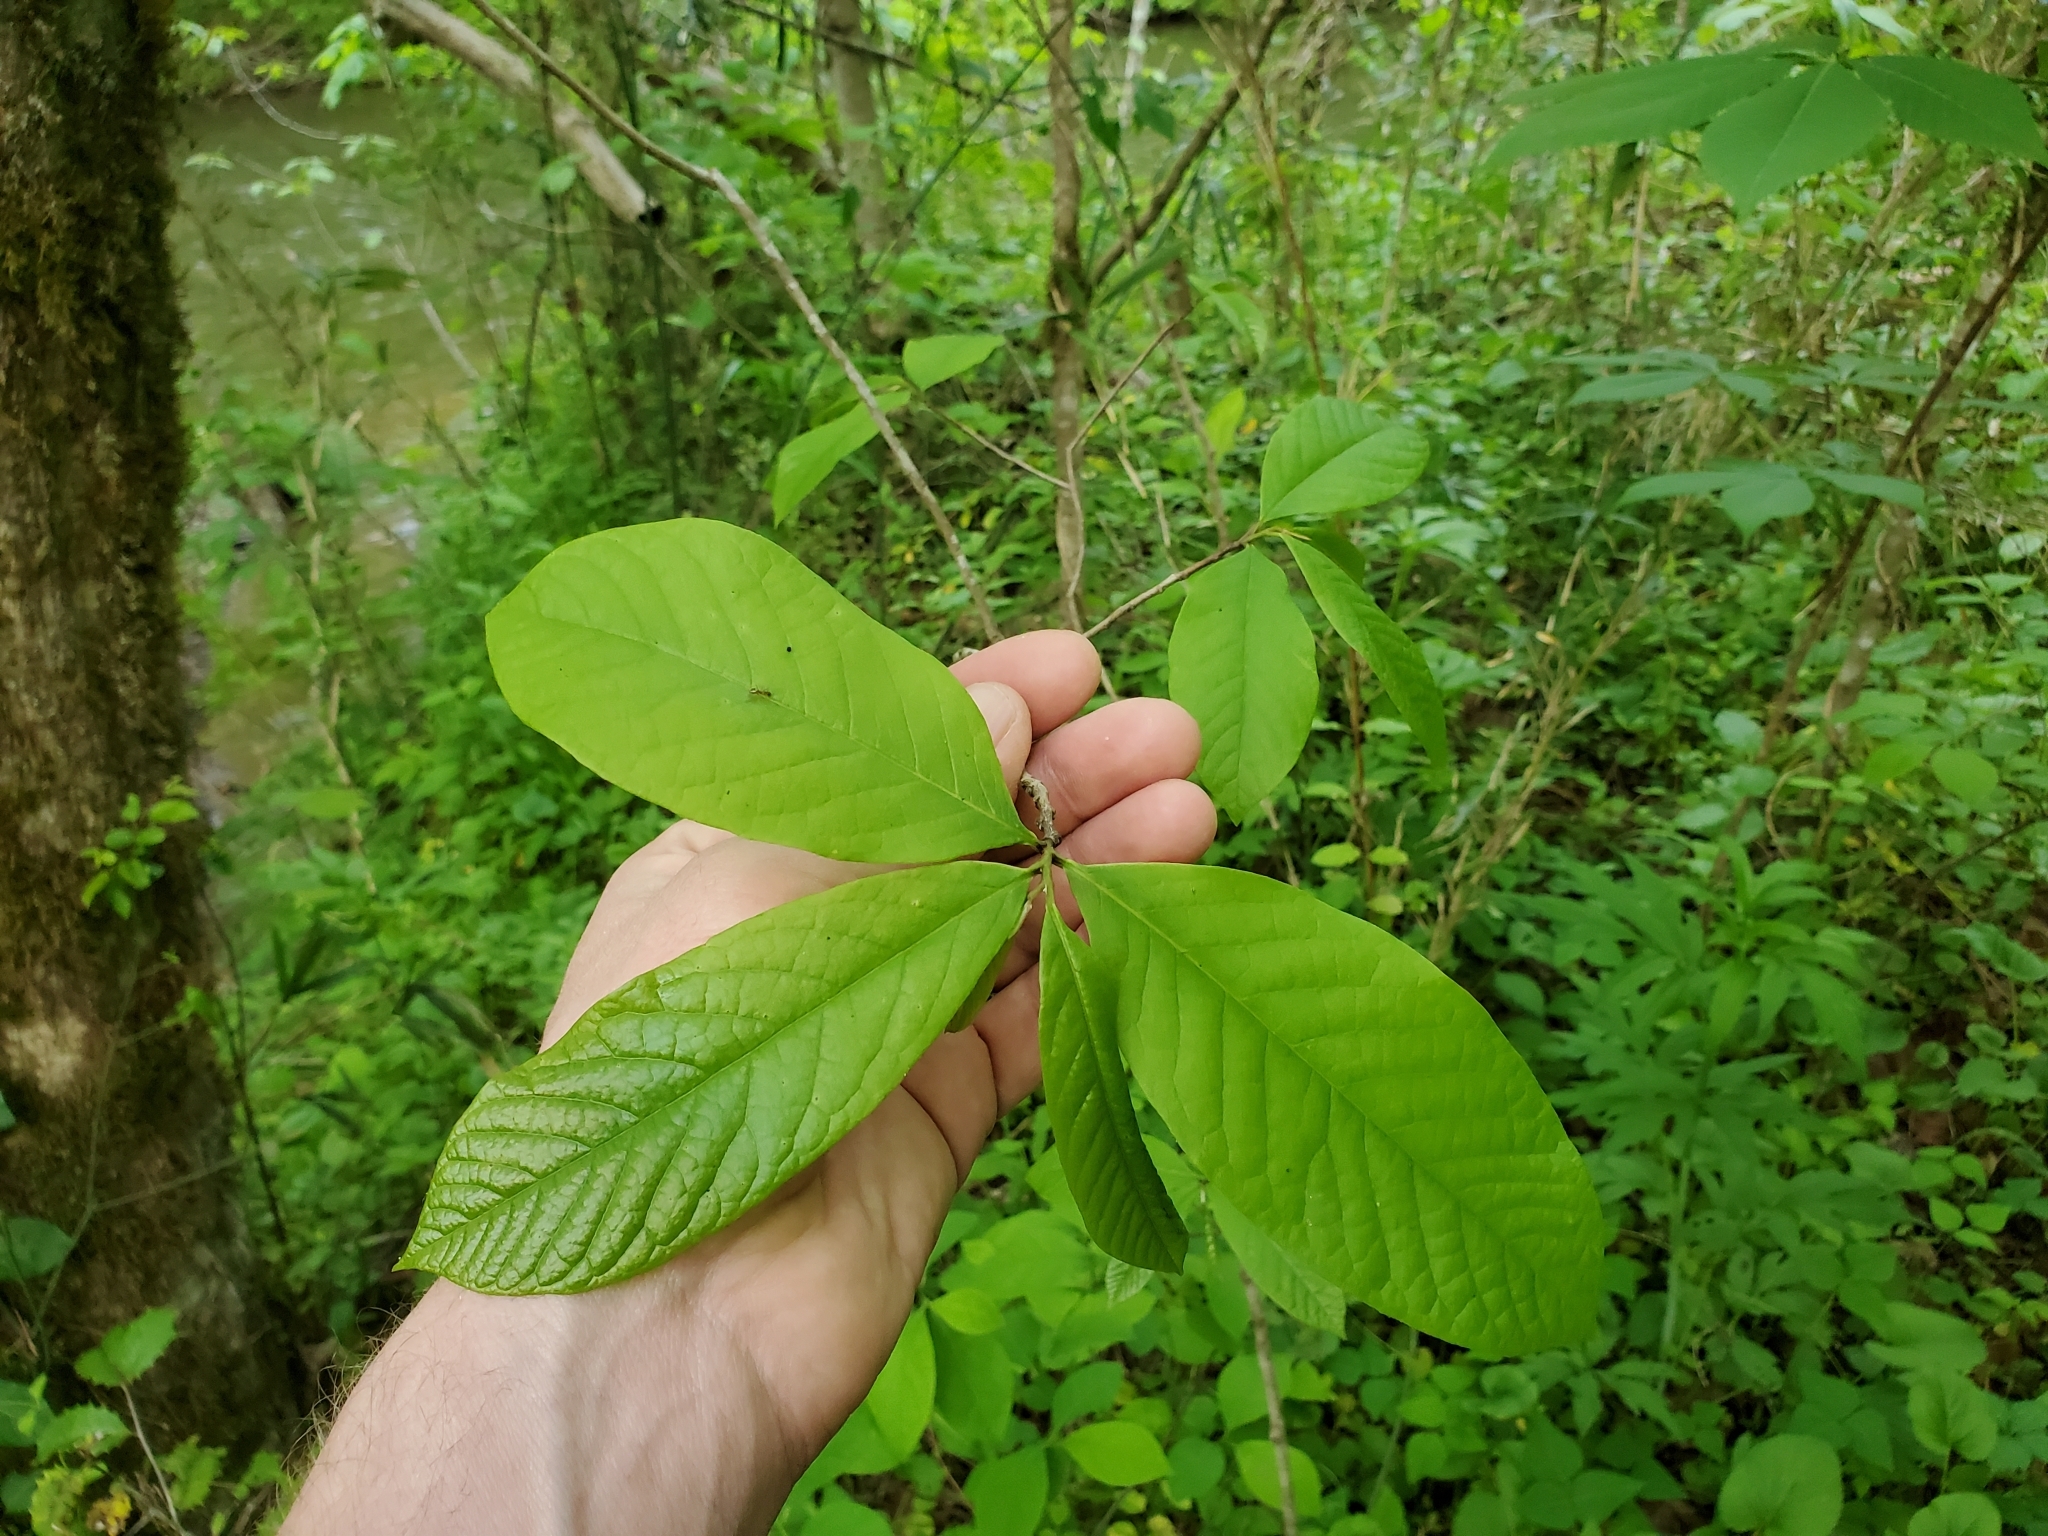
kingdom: Plantae
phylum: Tracheophyta
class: Magnoliopsida
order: Magnoliales
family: Annonaceae
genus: Asimina
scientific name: Asimina triloba
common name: Dog-banana
